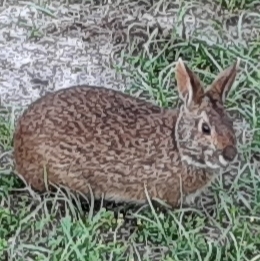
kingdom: Animalia
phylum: Chordata
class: Mammalia
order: Lagomorpha
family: Leporidae
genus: Sylvilagus
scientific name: Sylvilagus palustris
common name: Marsh rabbit
